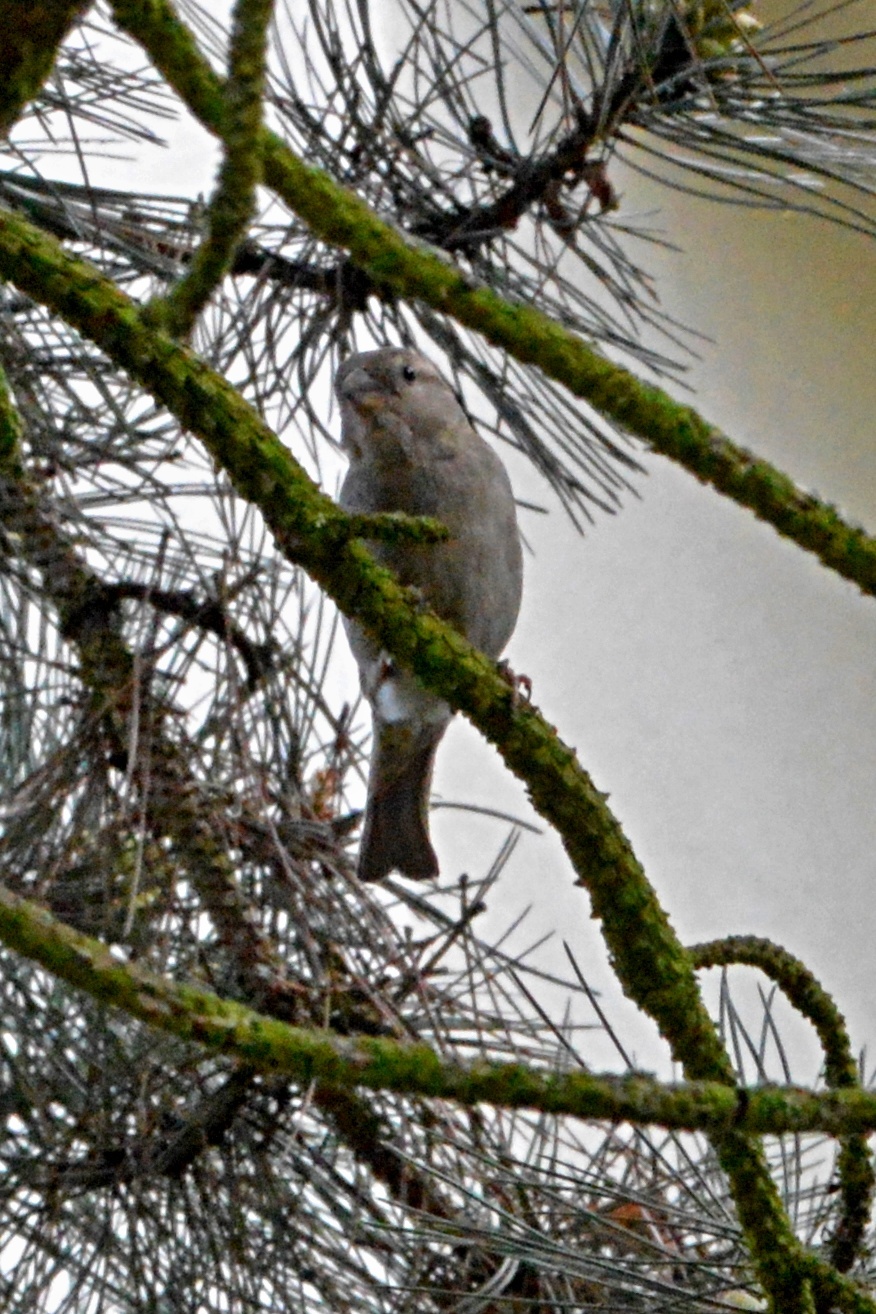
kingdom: Animalia
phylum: Chordata
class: Aves
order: Passeriformes
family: Passeridae
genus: Passer
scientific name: Passer domesticus
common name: House sparrow
